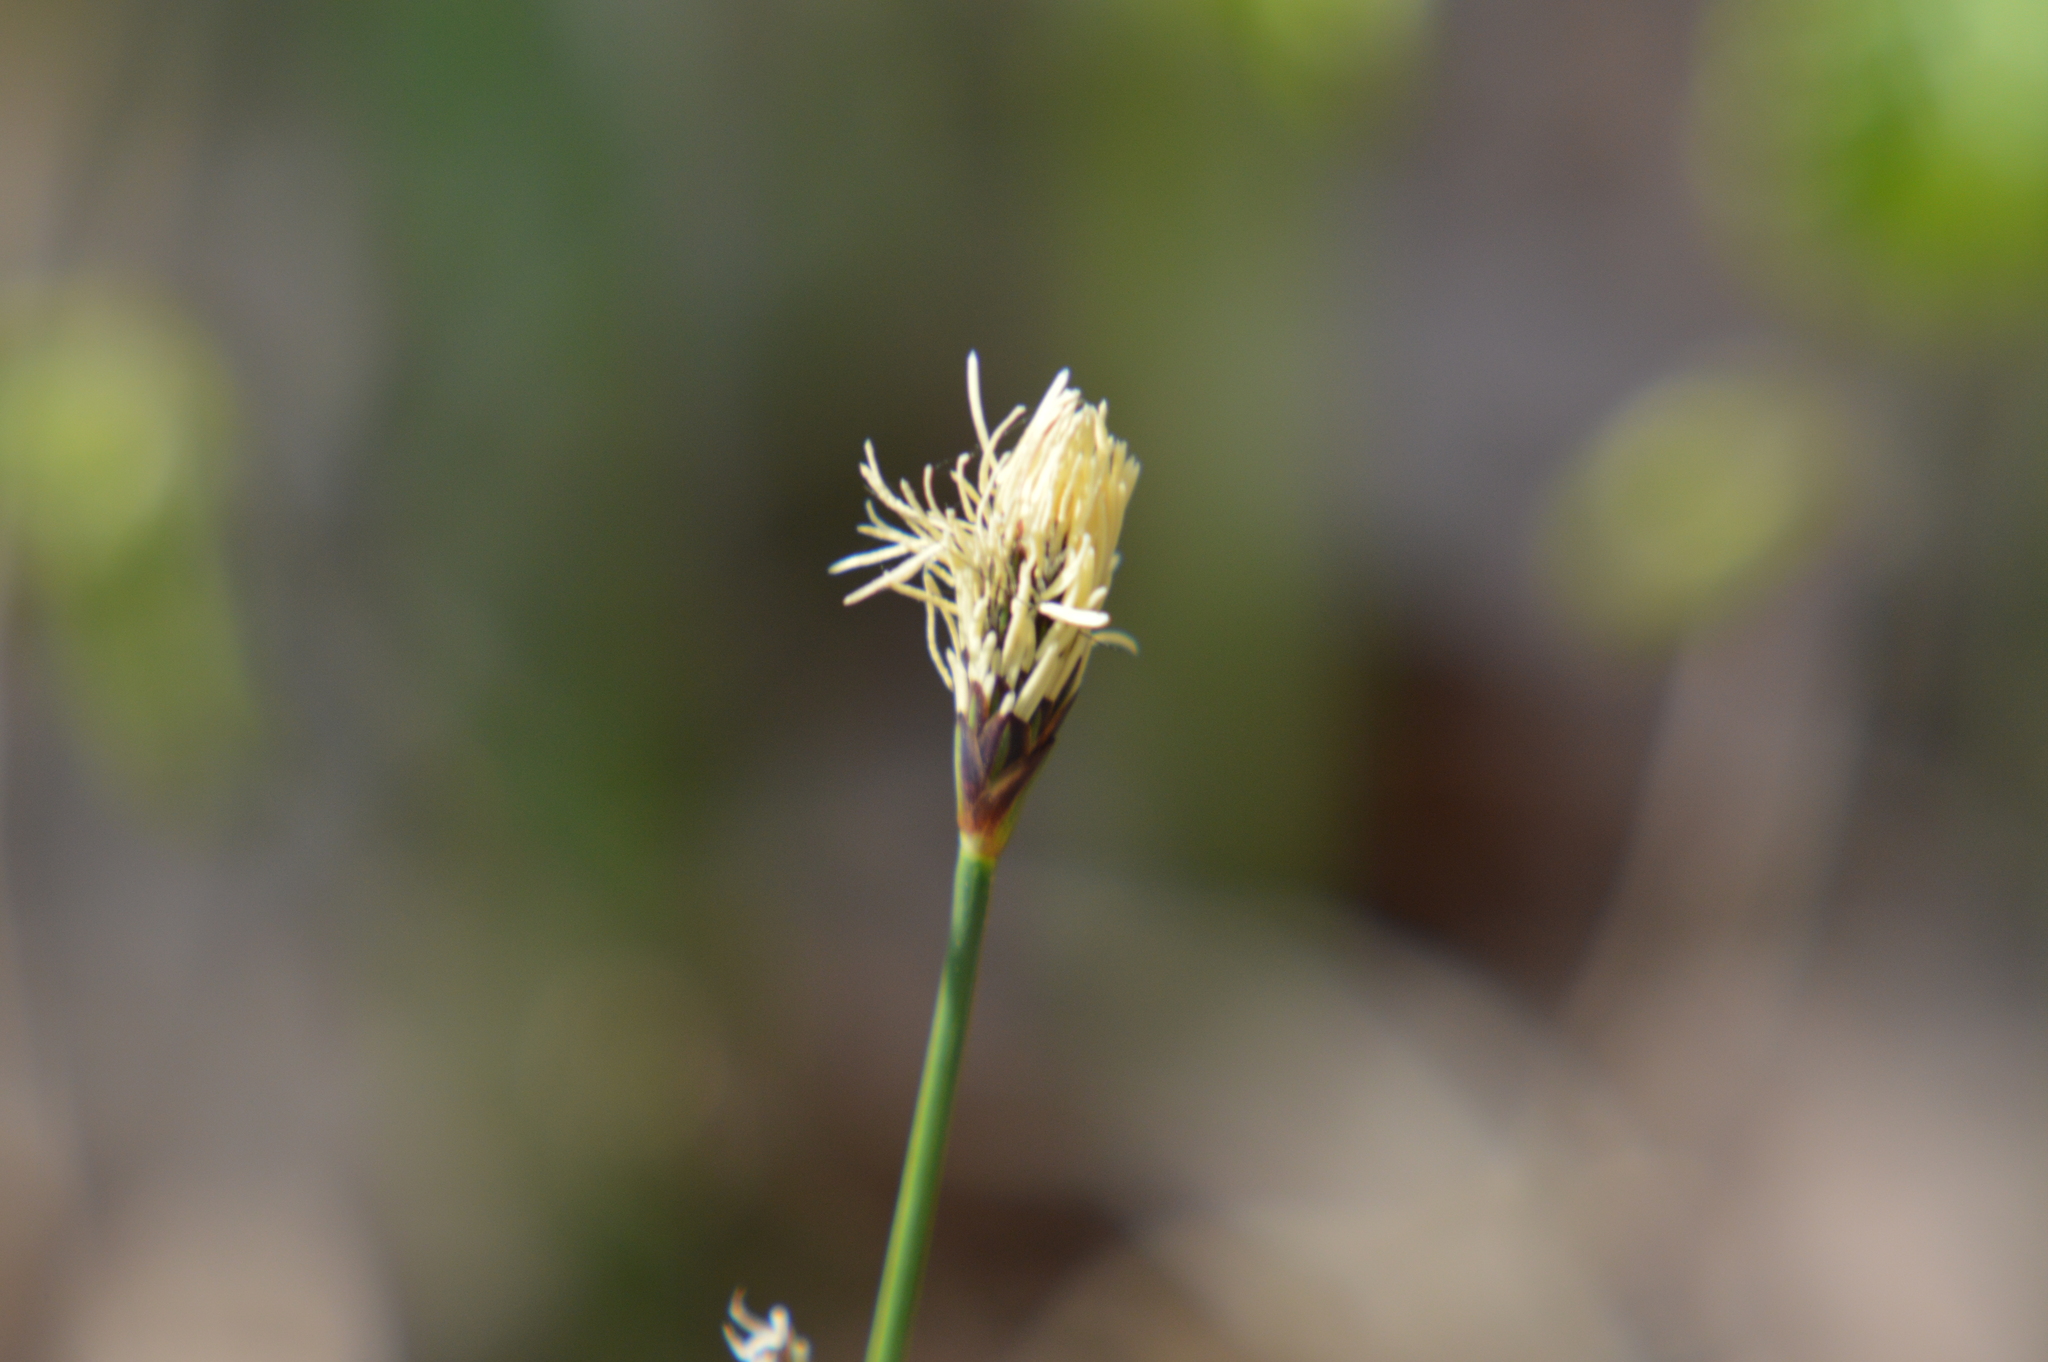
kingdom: Plantae
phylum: Tracheophyta
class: Liliopsida
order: Poales
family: Cyperaceae
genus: Carex
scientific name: Carex pilosa
